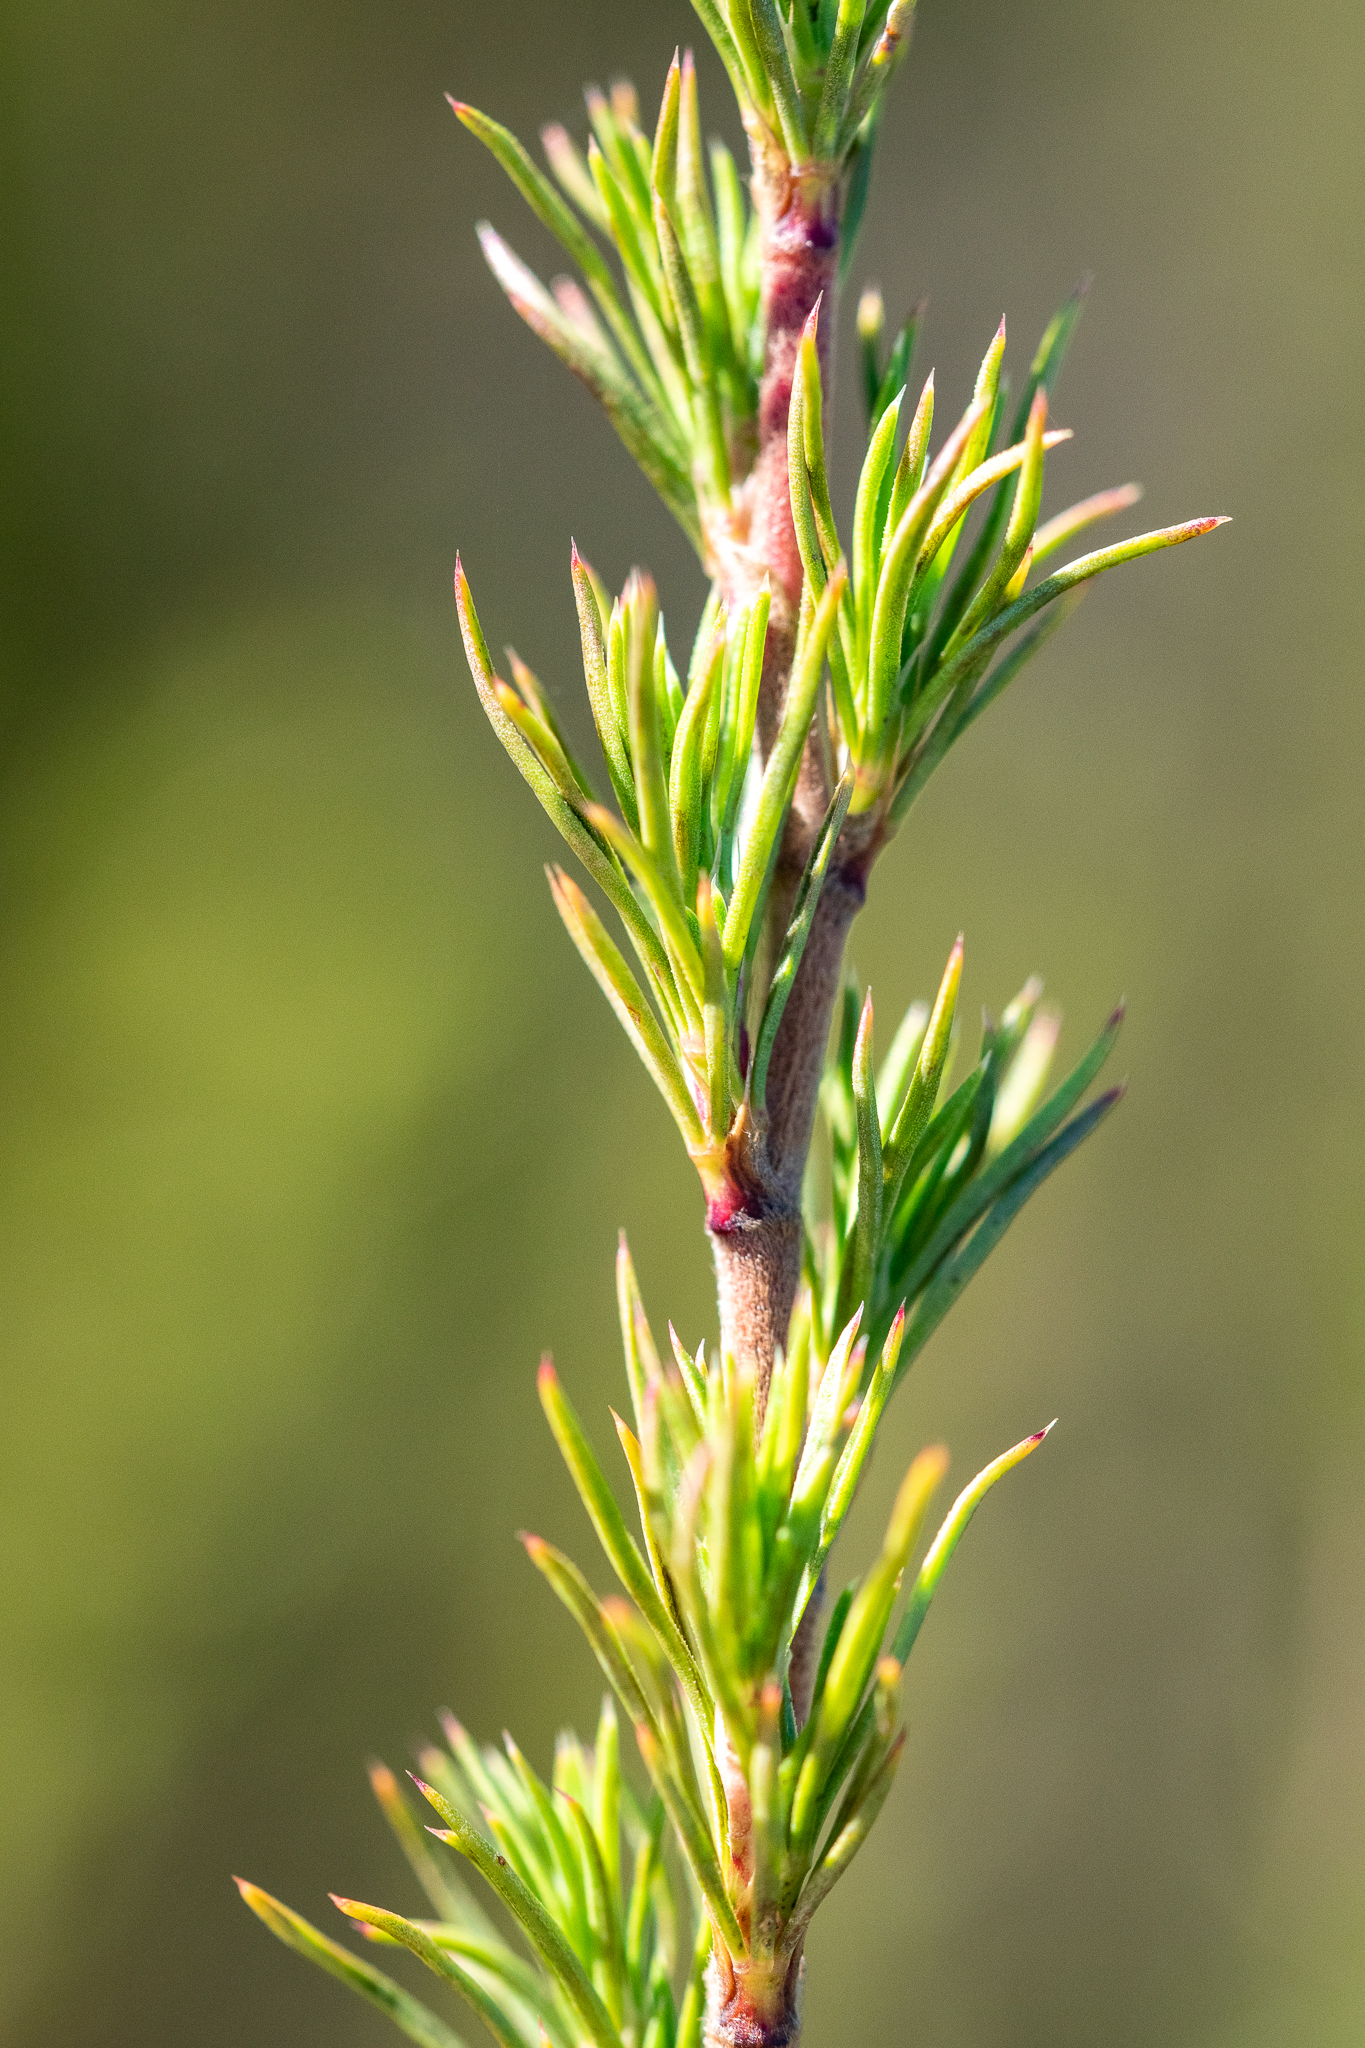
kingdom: Plantae
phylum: Tracheophyta
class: Magnoliopsida
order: Rosales
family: Rosaceae
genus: Cliffortia
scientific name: Cliffortia atrata
